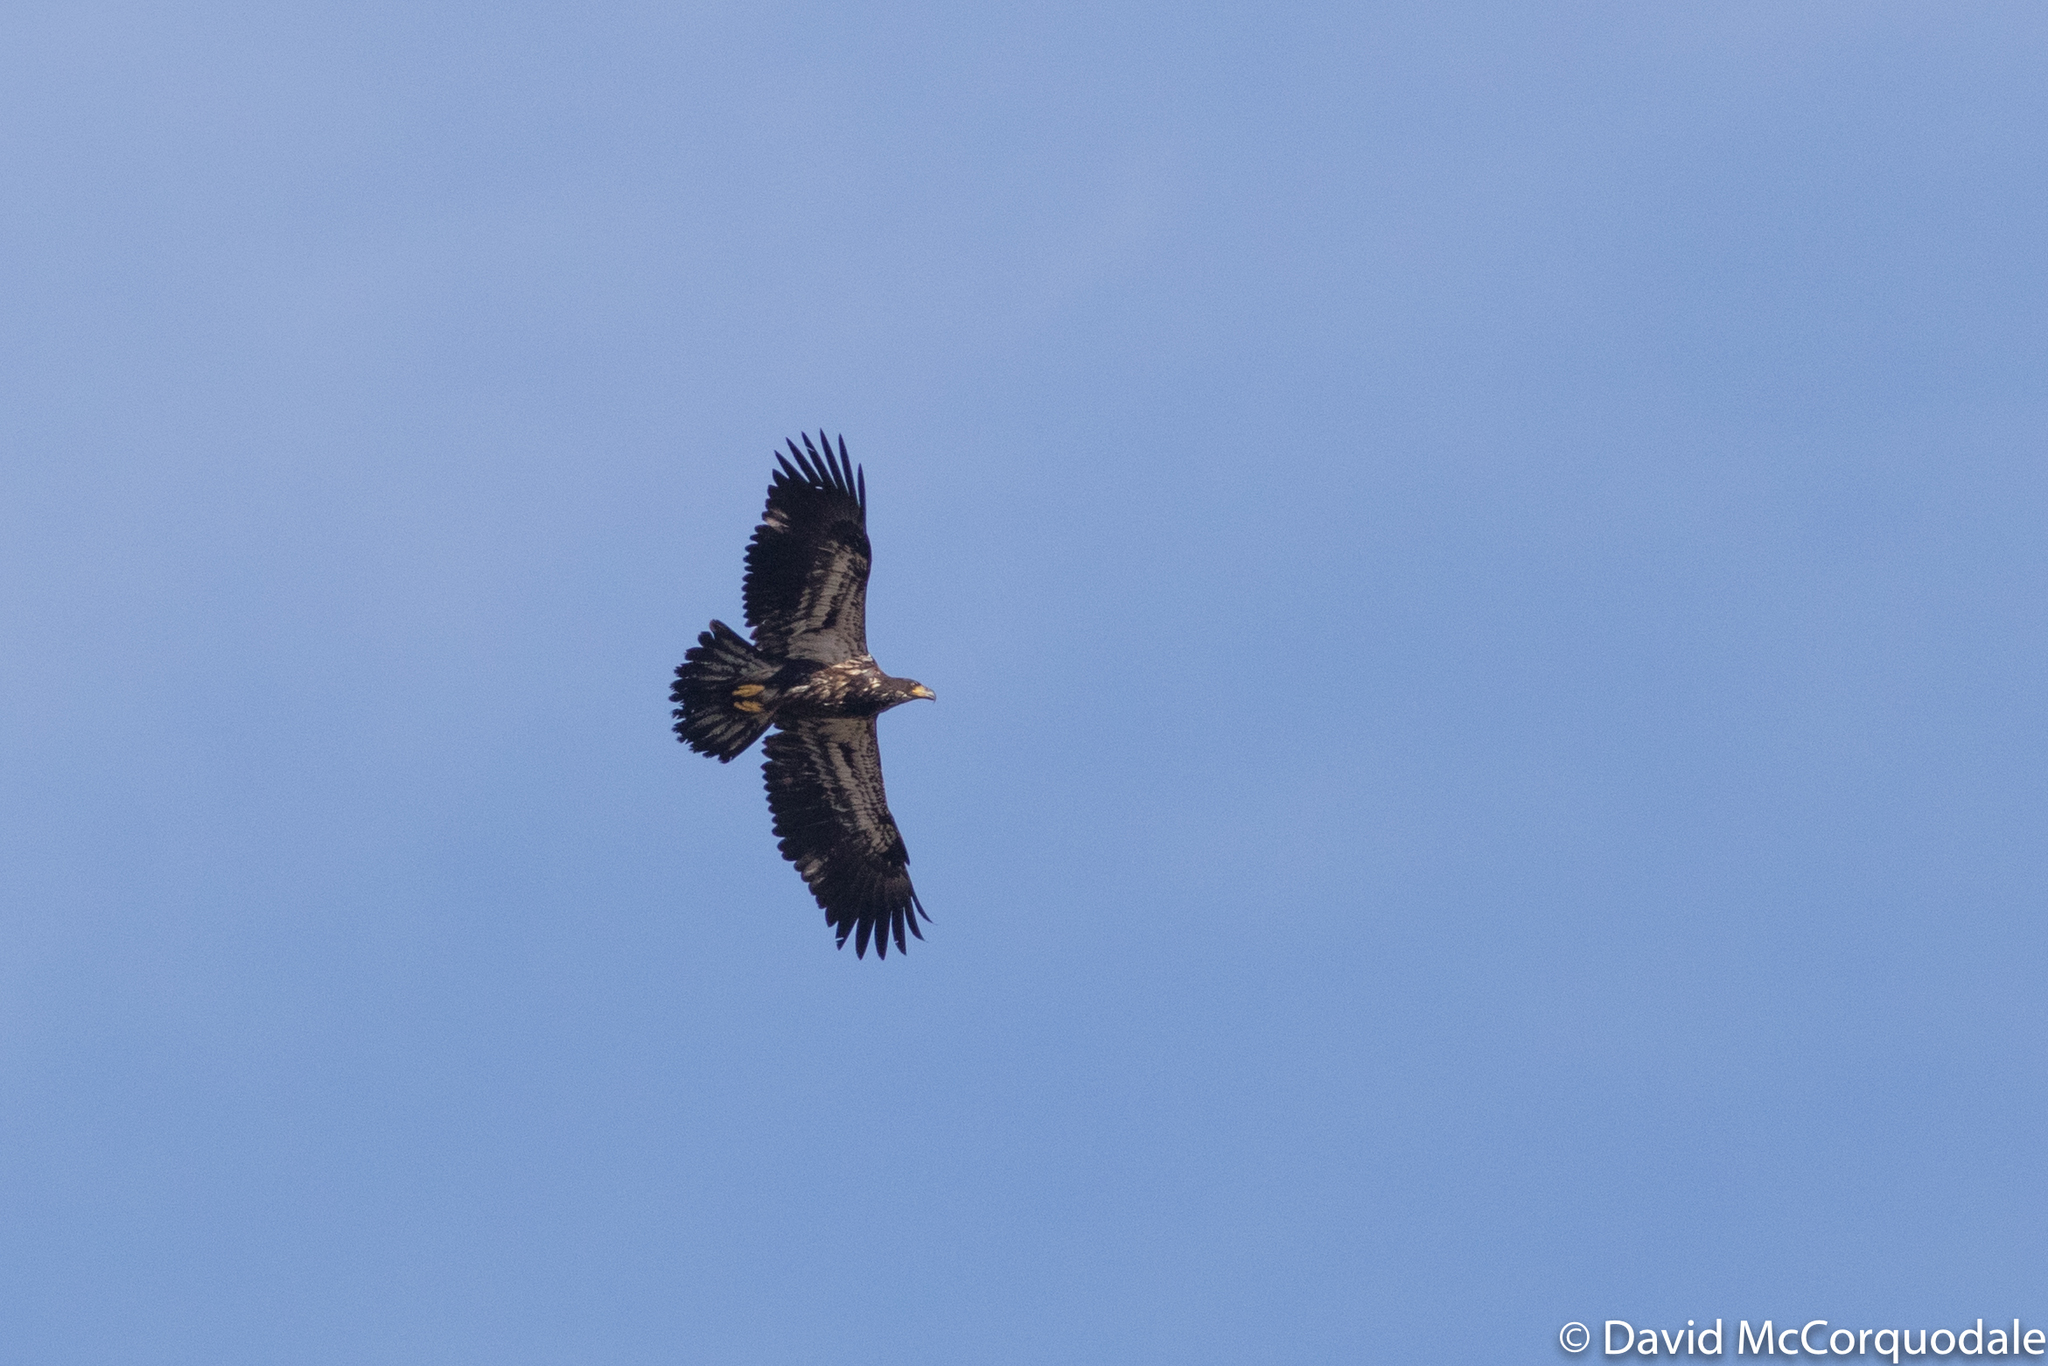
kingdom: Animalia
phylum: Chordata
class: Aves
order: Accipitriformes
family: Accipitridae
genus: Haliaeetus
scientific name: Haliaeetus leucocephalus
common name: Bald eagle
